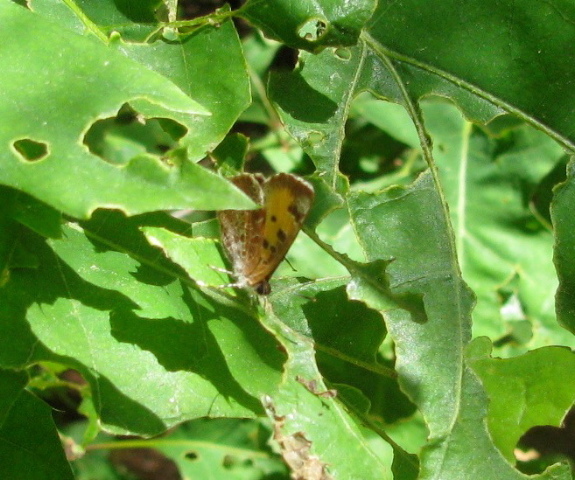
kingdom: Animalia
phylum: Arthropoda
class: Insecta
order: Lepidoptera
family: Lycaenidae
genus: Feniseca
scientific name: Feniseca tarquinius
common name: Harvester
